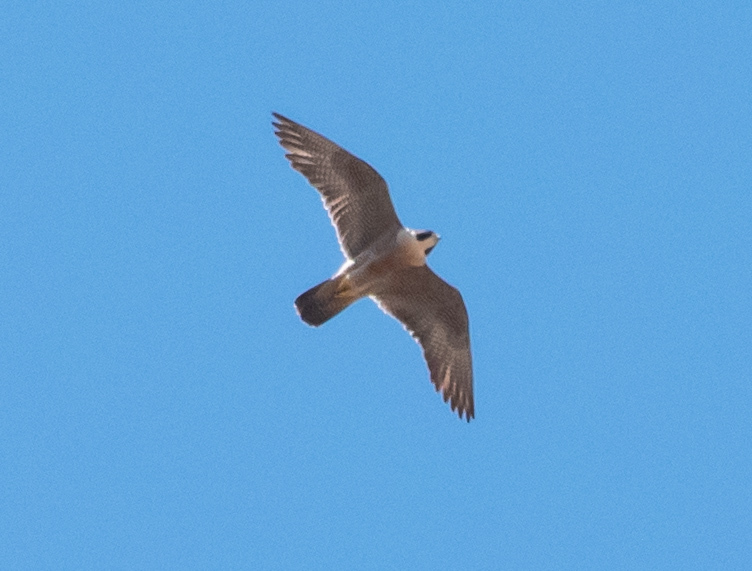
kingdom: Animalia
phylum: Chordata
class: Aves
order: Falconiformes
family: Falconidae
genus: Falco
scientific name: Falco peregrinus
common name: Peregrine falcon
